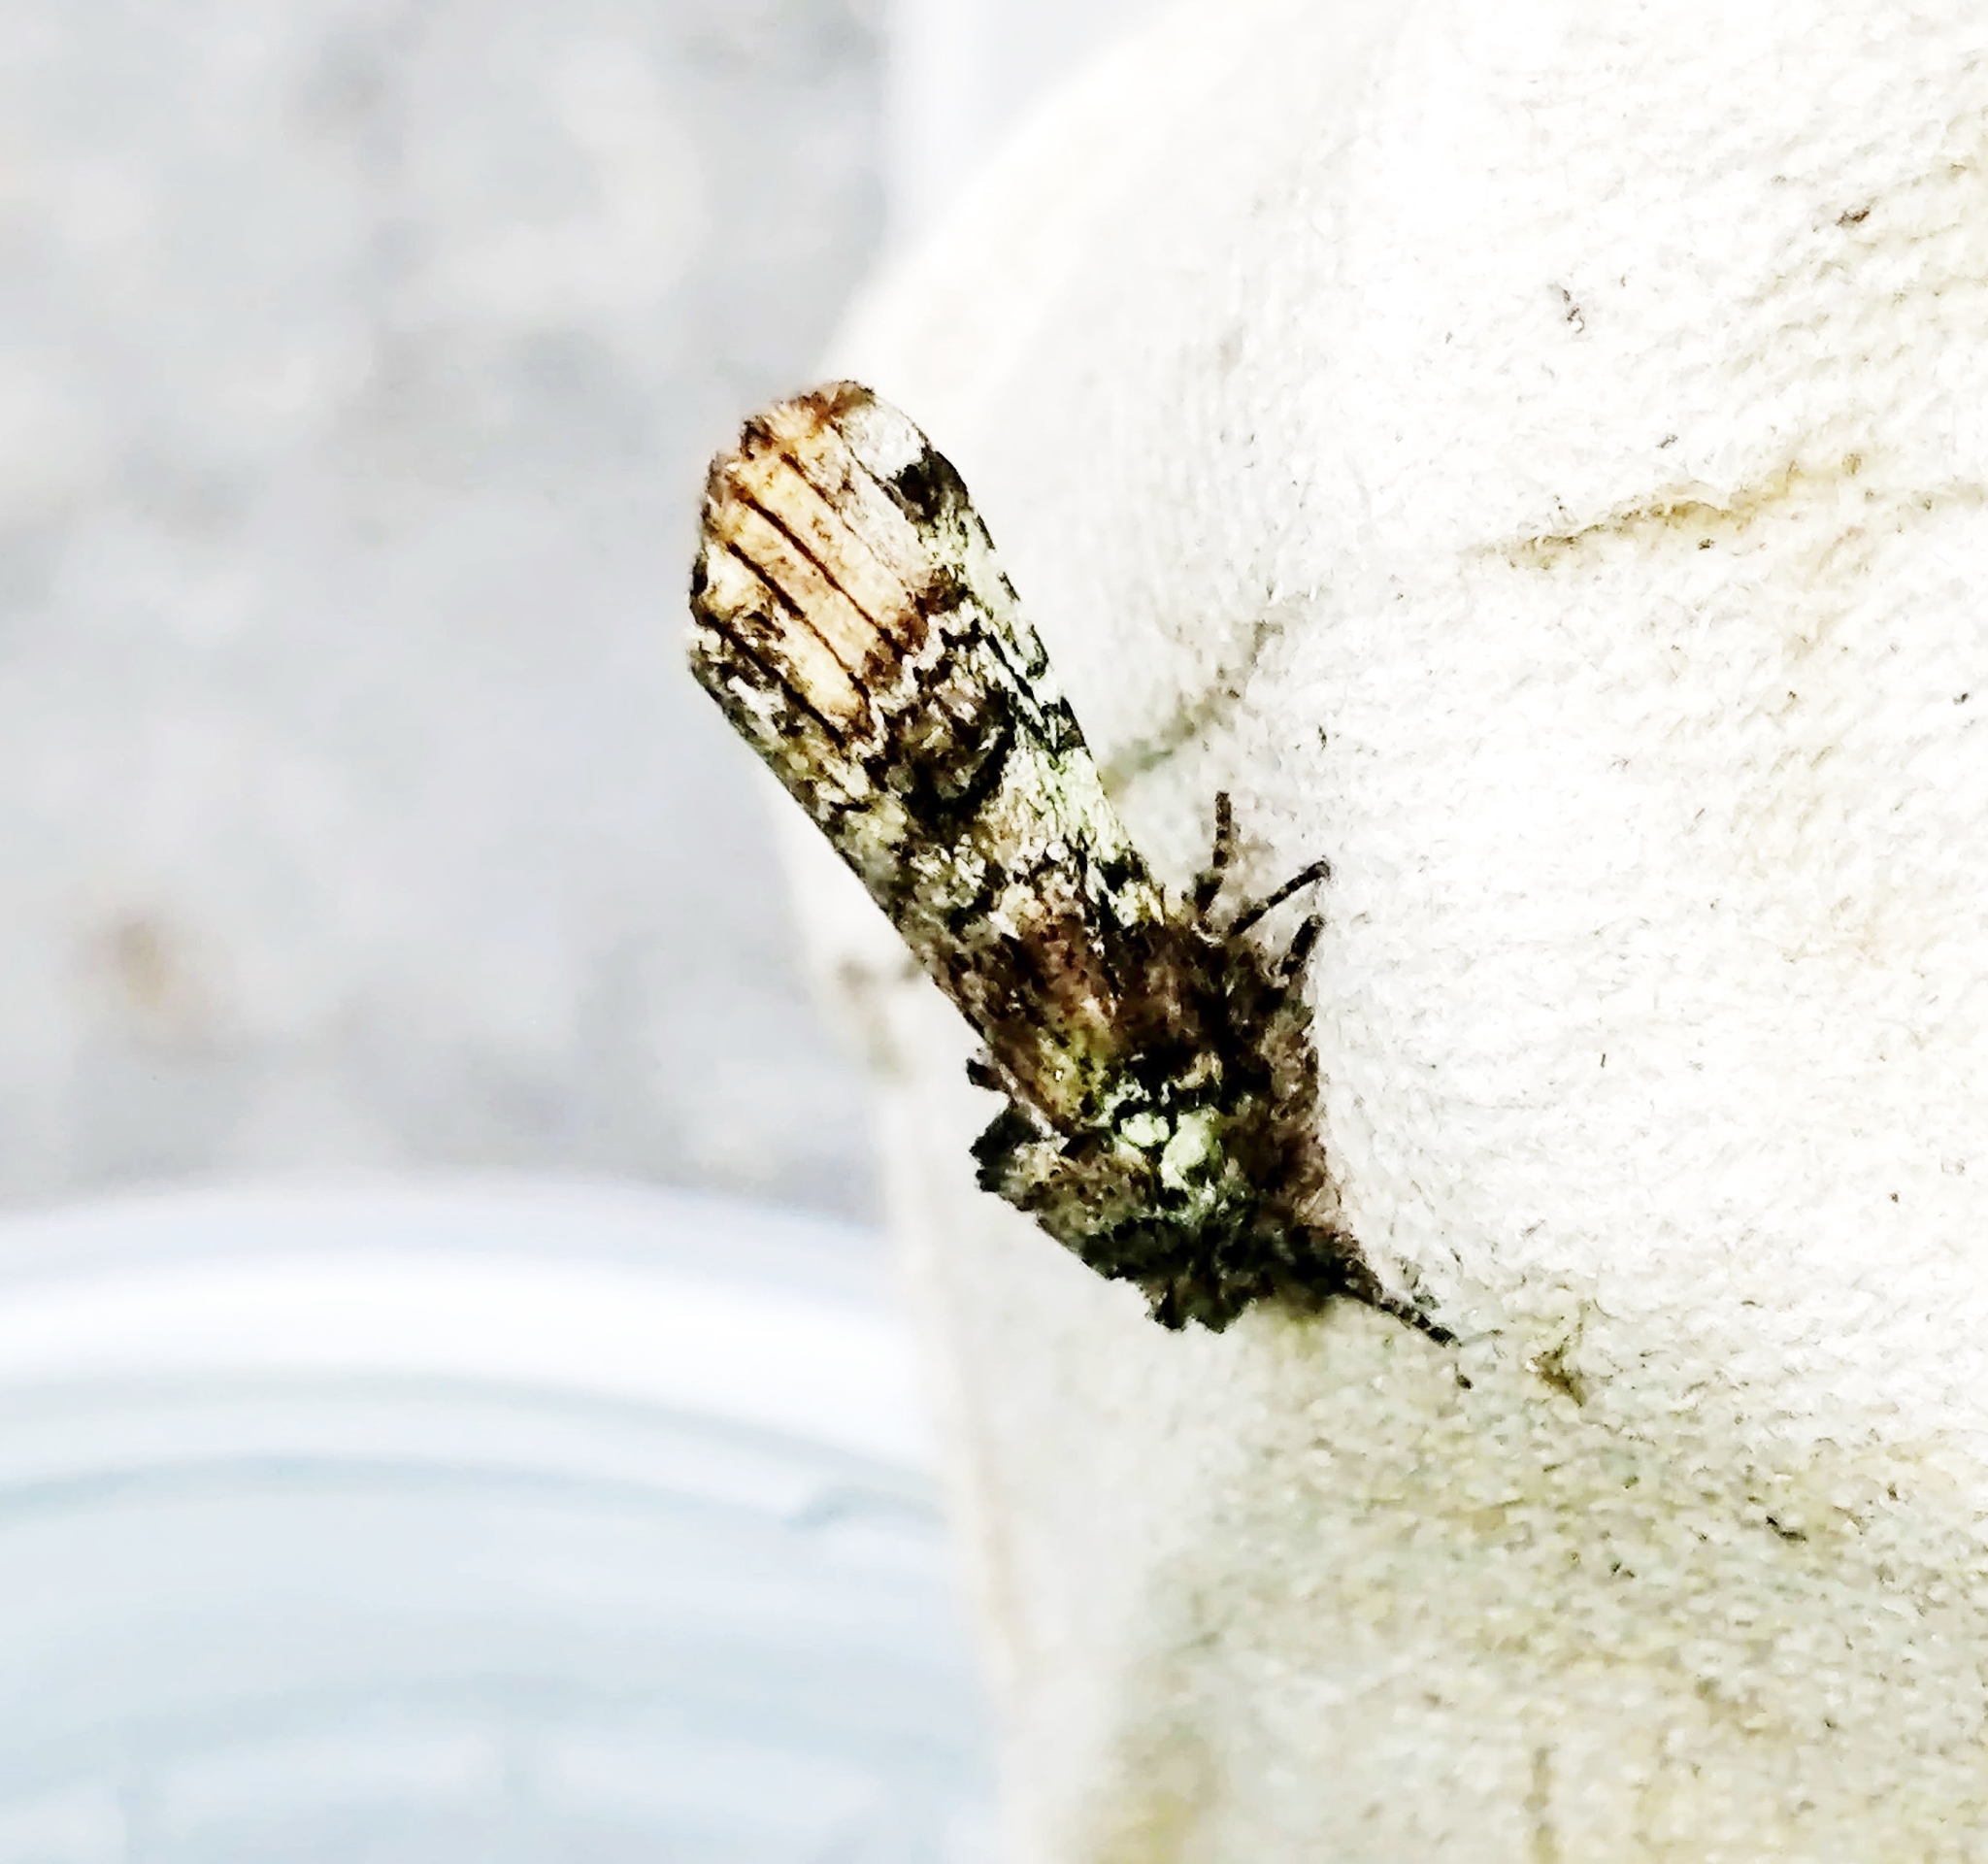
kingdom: Animalia
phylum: Arthropoda
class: Insecta
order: Lepidoptera
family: Notodontidae
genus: Schizura
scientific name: Schizura
